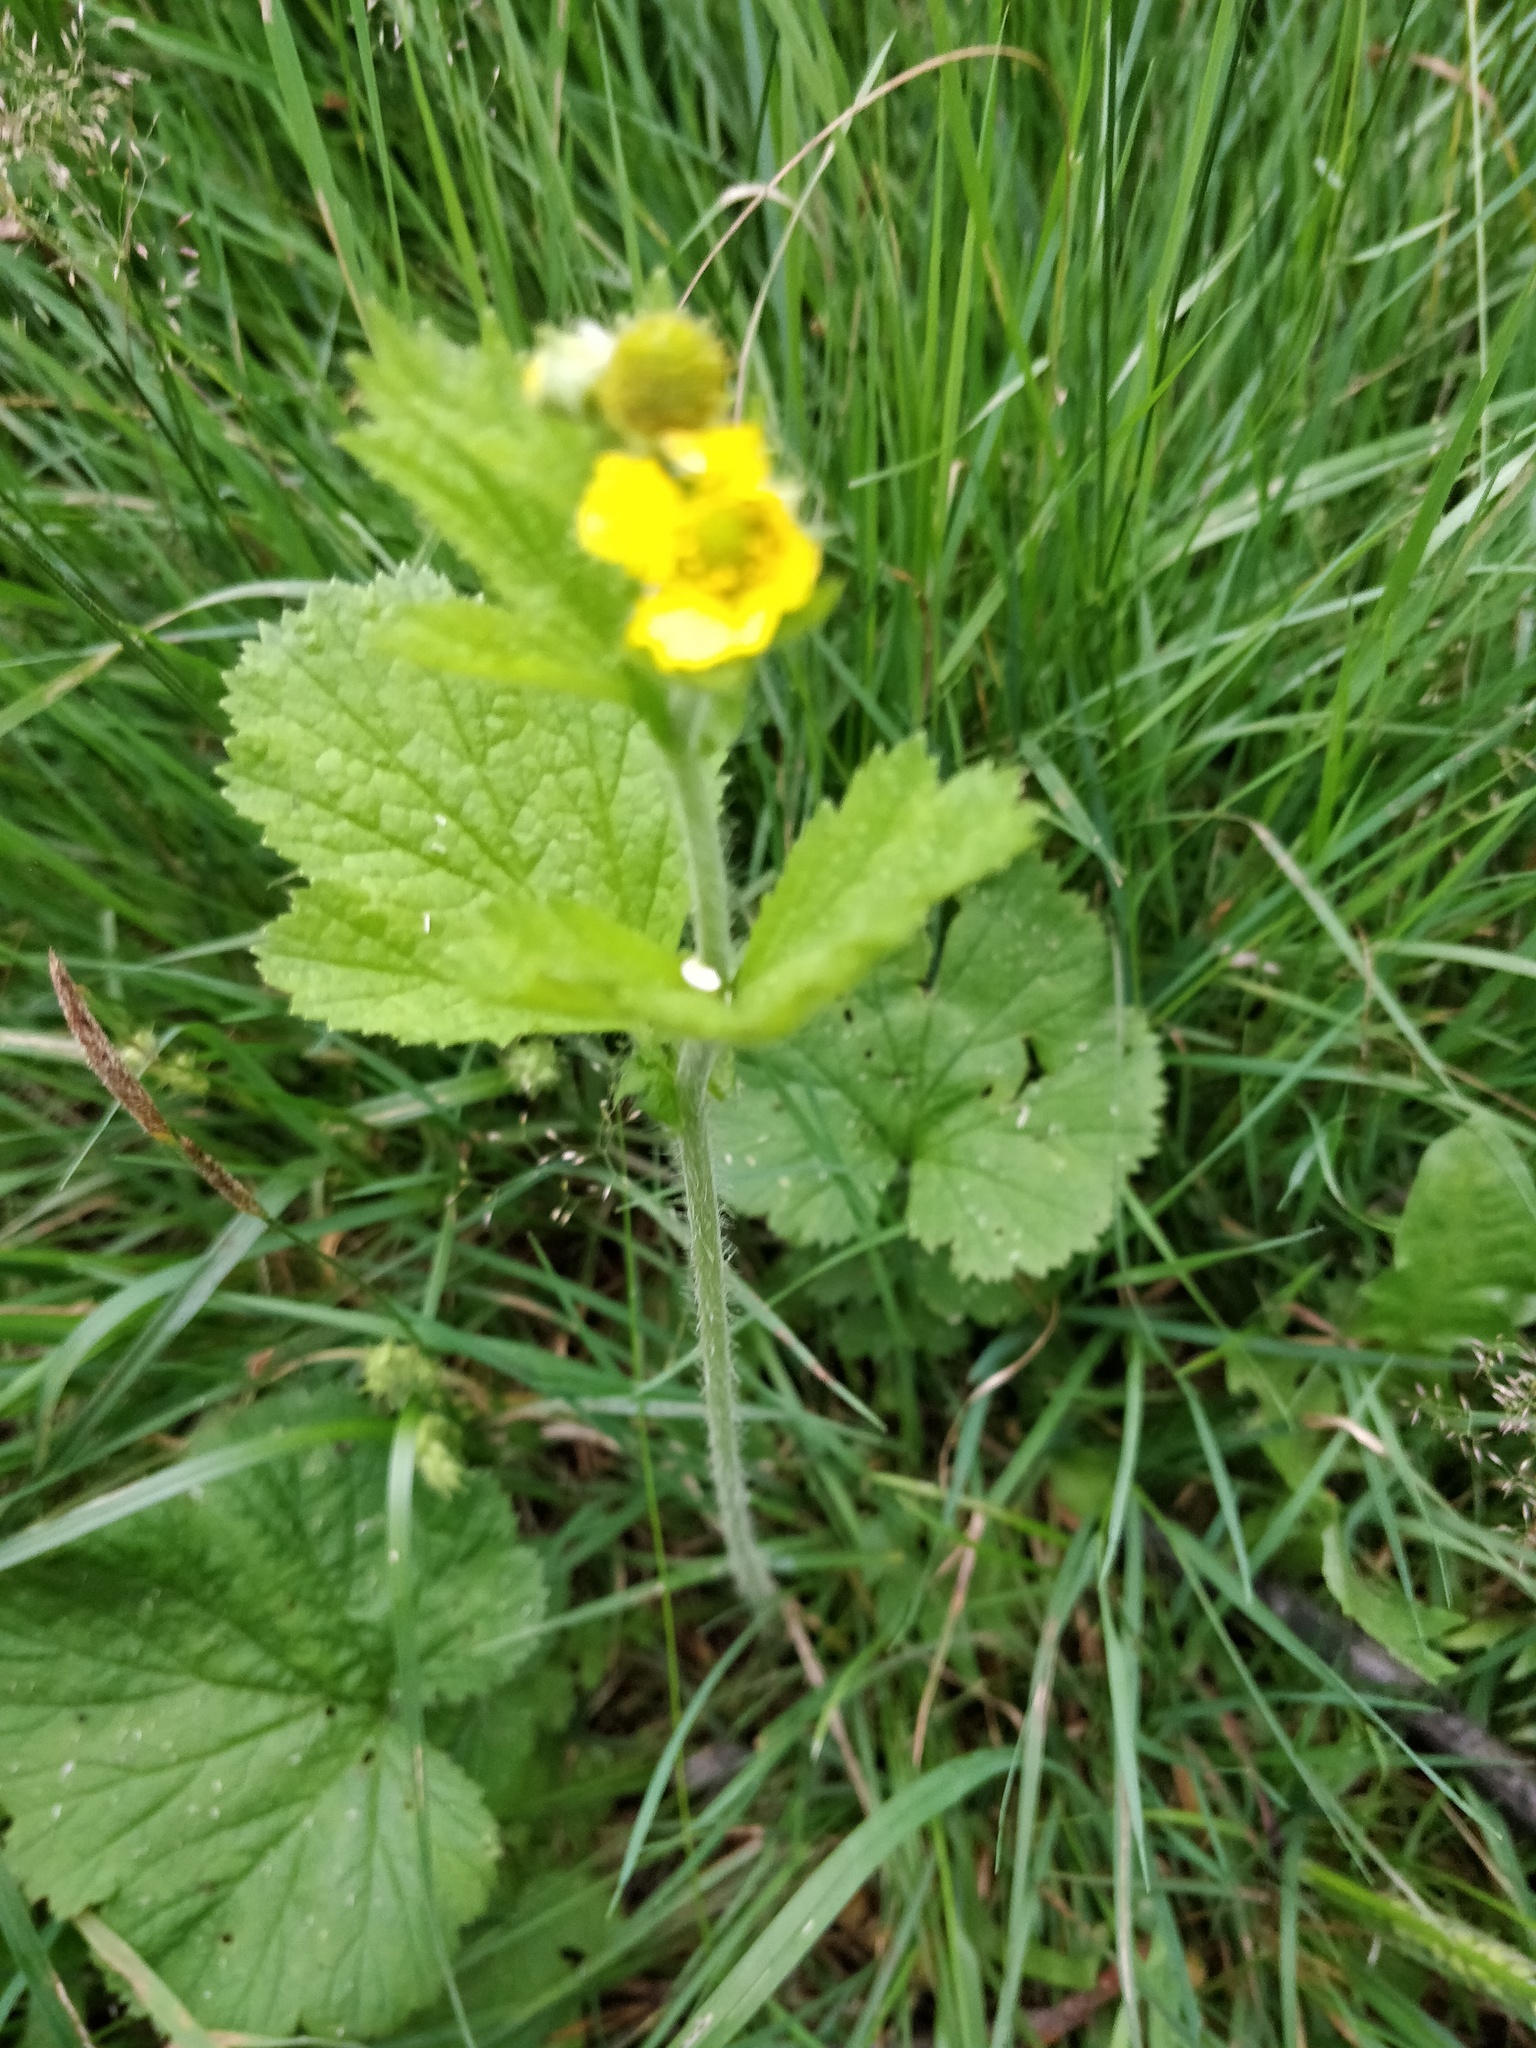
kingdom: Plantae
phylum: Tracheophyta
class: Magnoliopsida
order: Rosales
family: Rosaceae
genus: Geum
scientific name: Geum aleppicum
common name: Yellow avens
